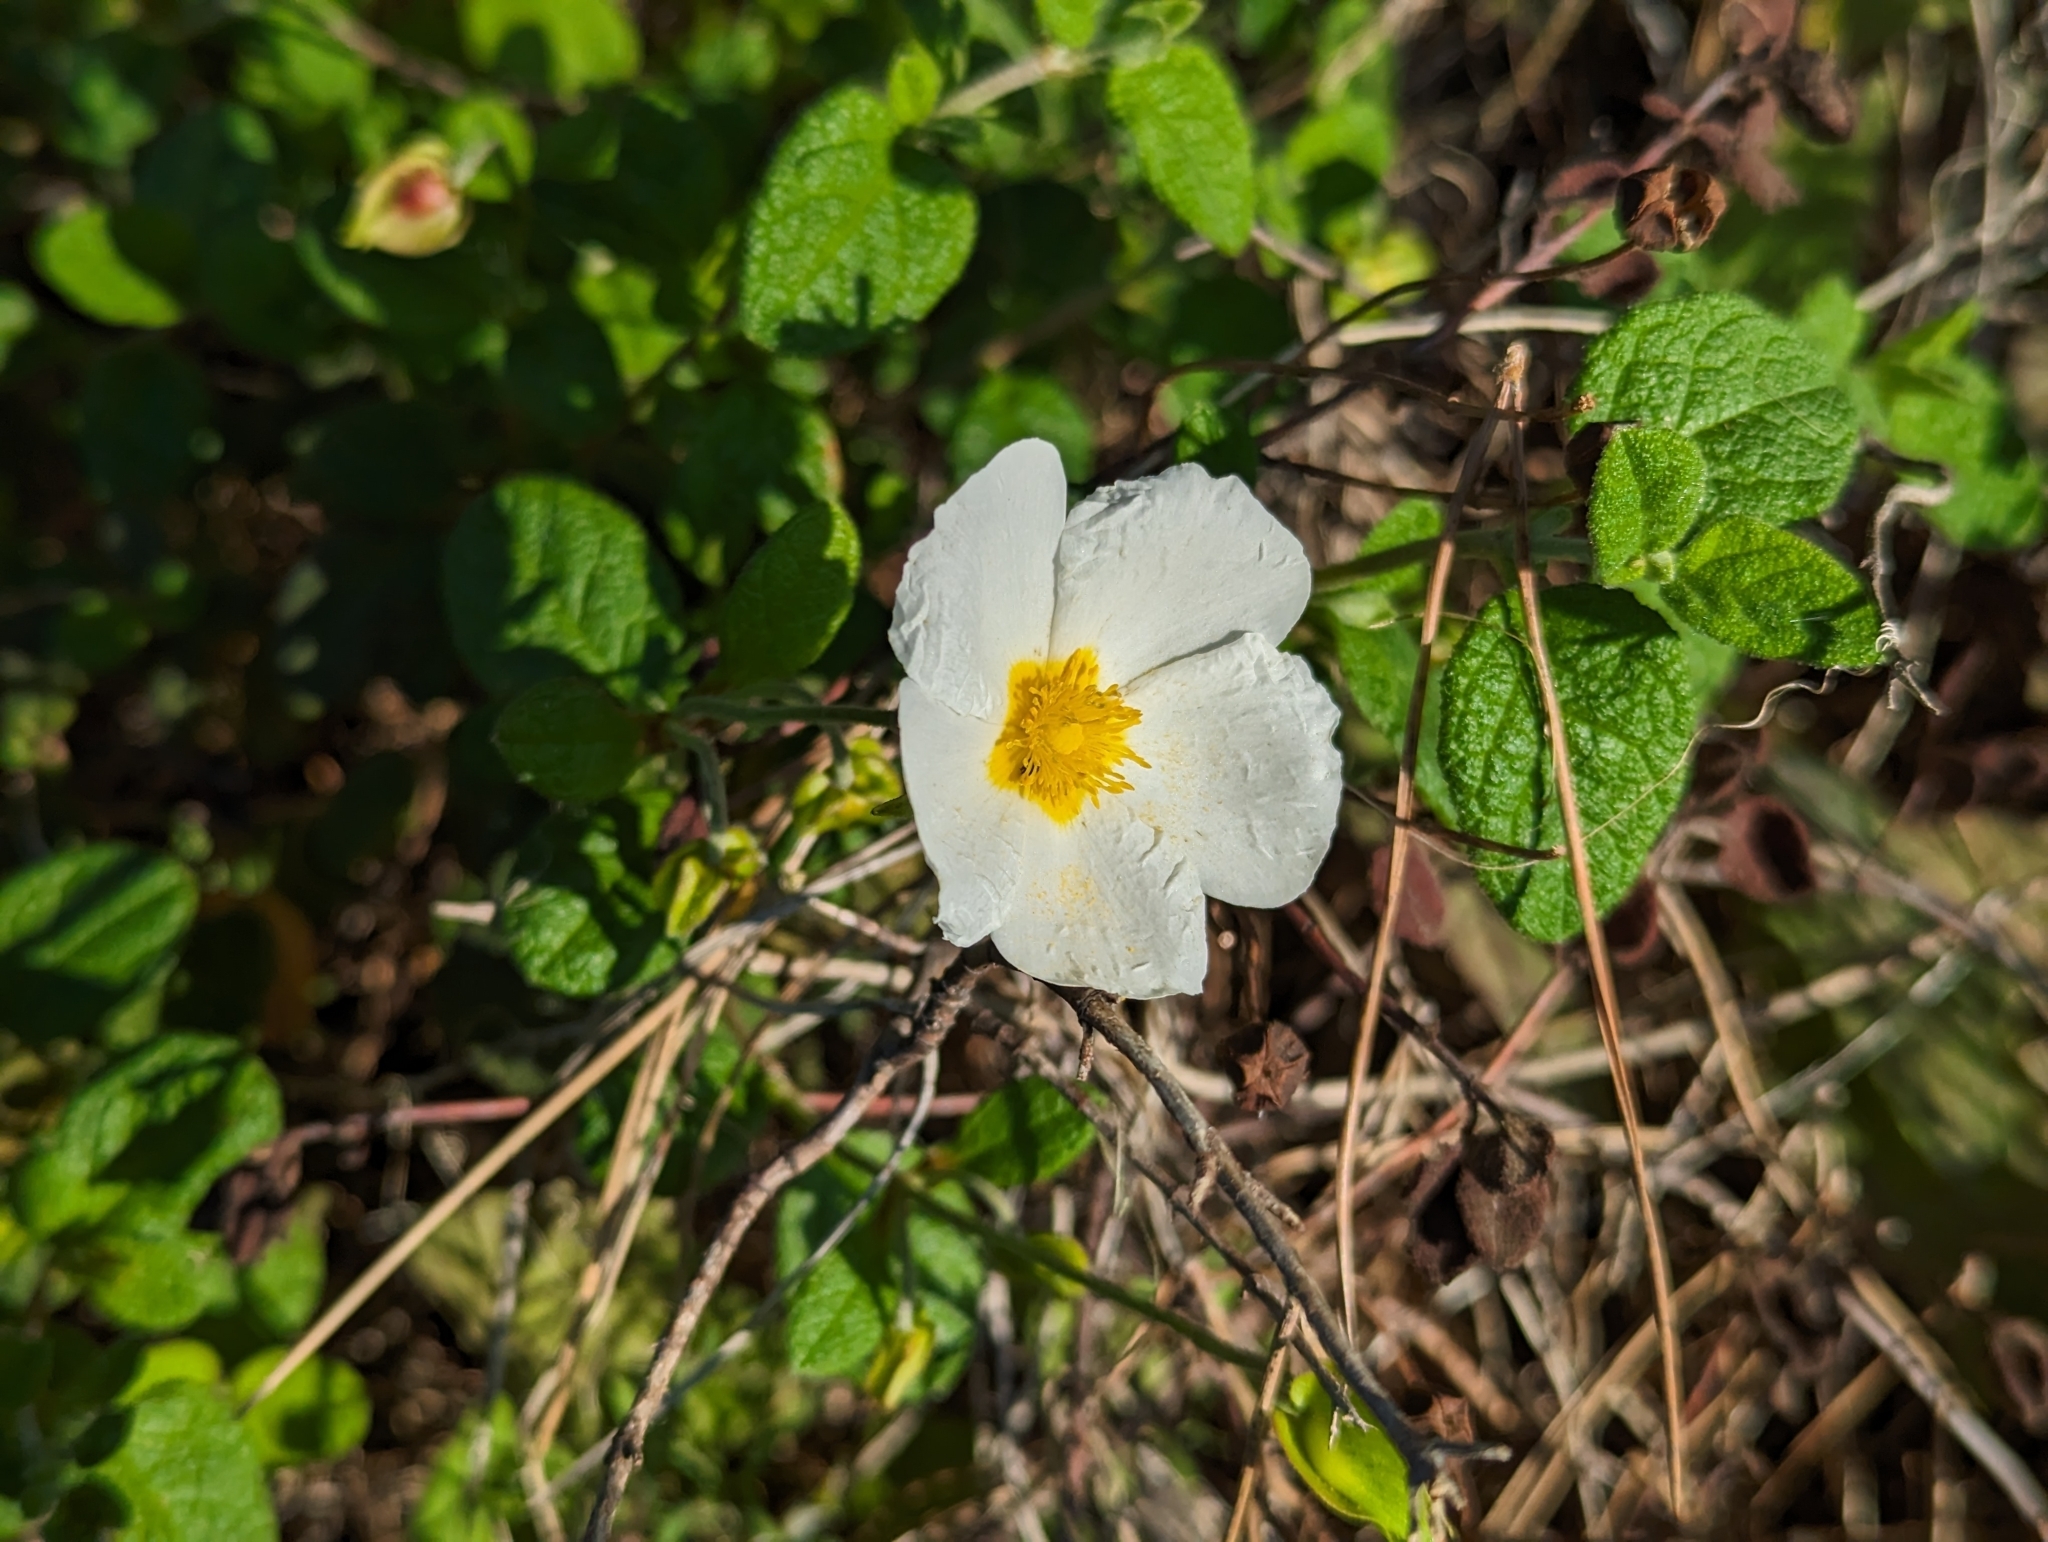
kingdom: Plantae
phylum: Tracheophyta
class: Magnoliopsida
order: Malvales
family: Cistaceae
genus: Cistus
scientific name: Cistus salviifolius
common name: Salvia cistus
